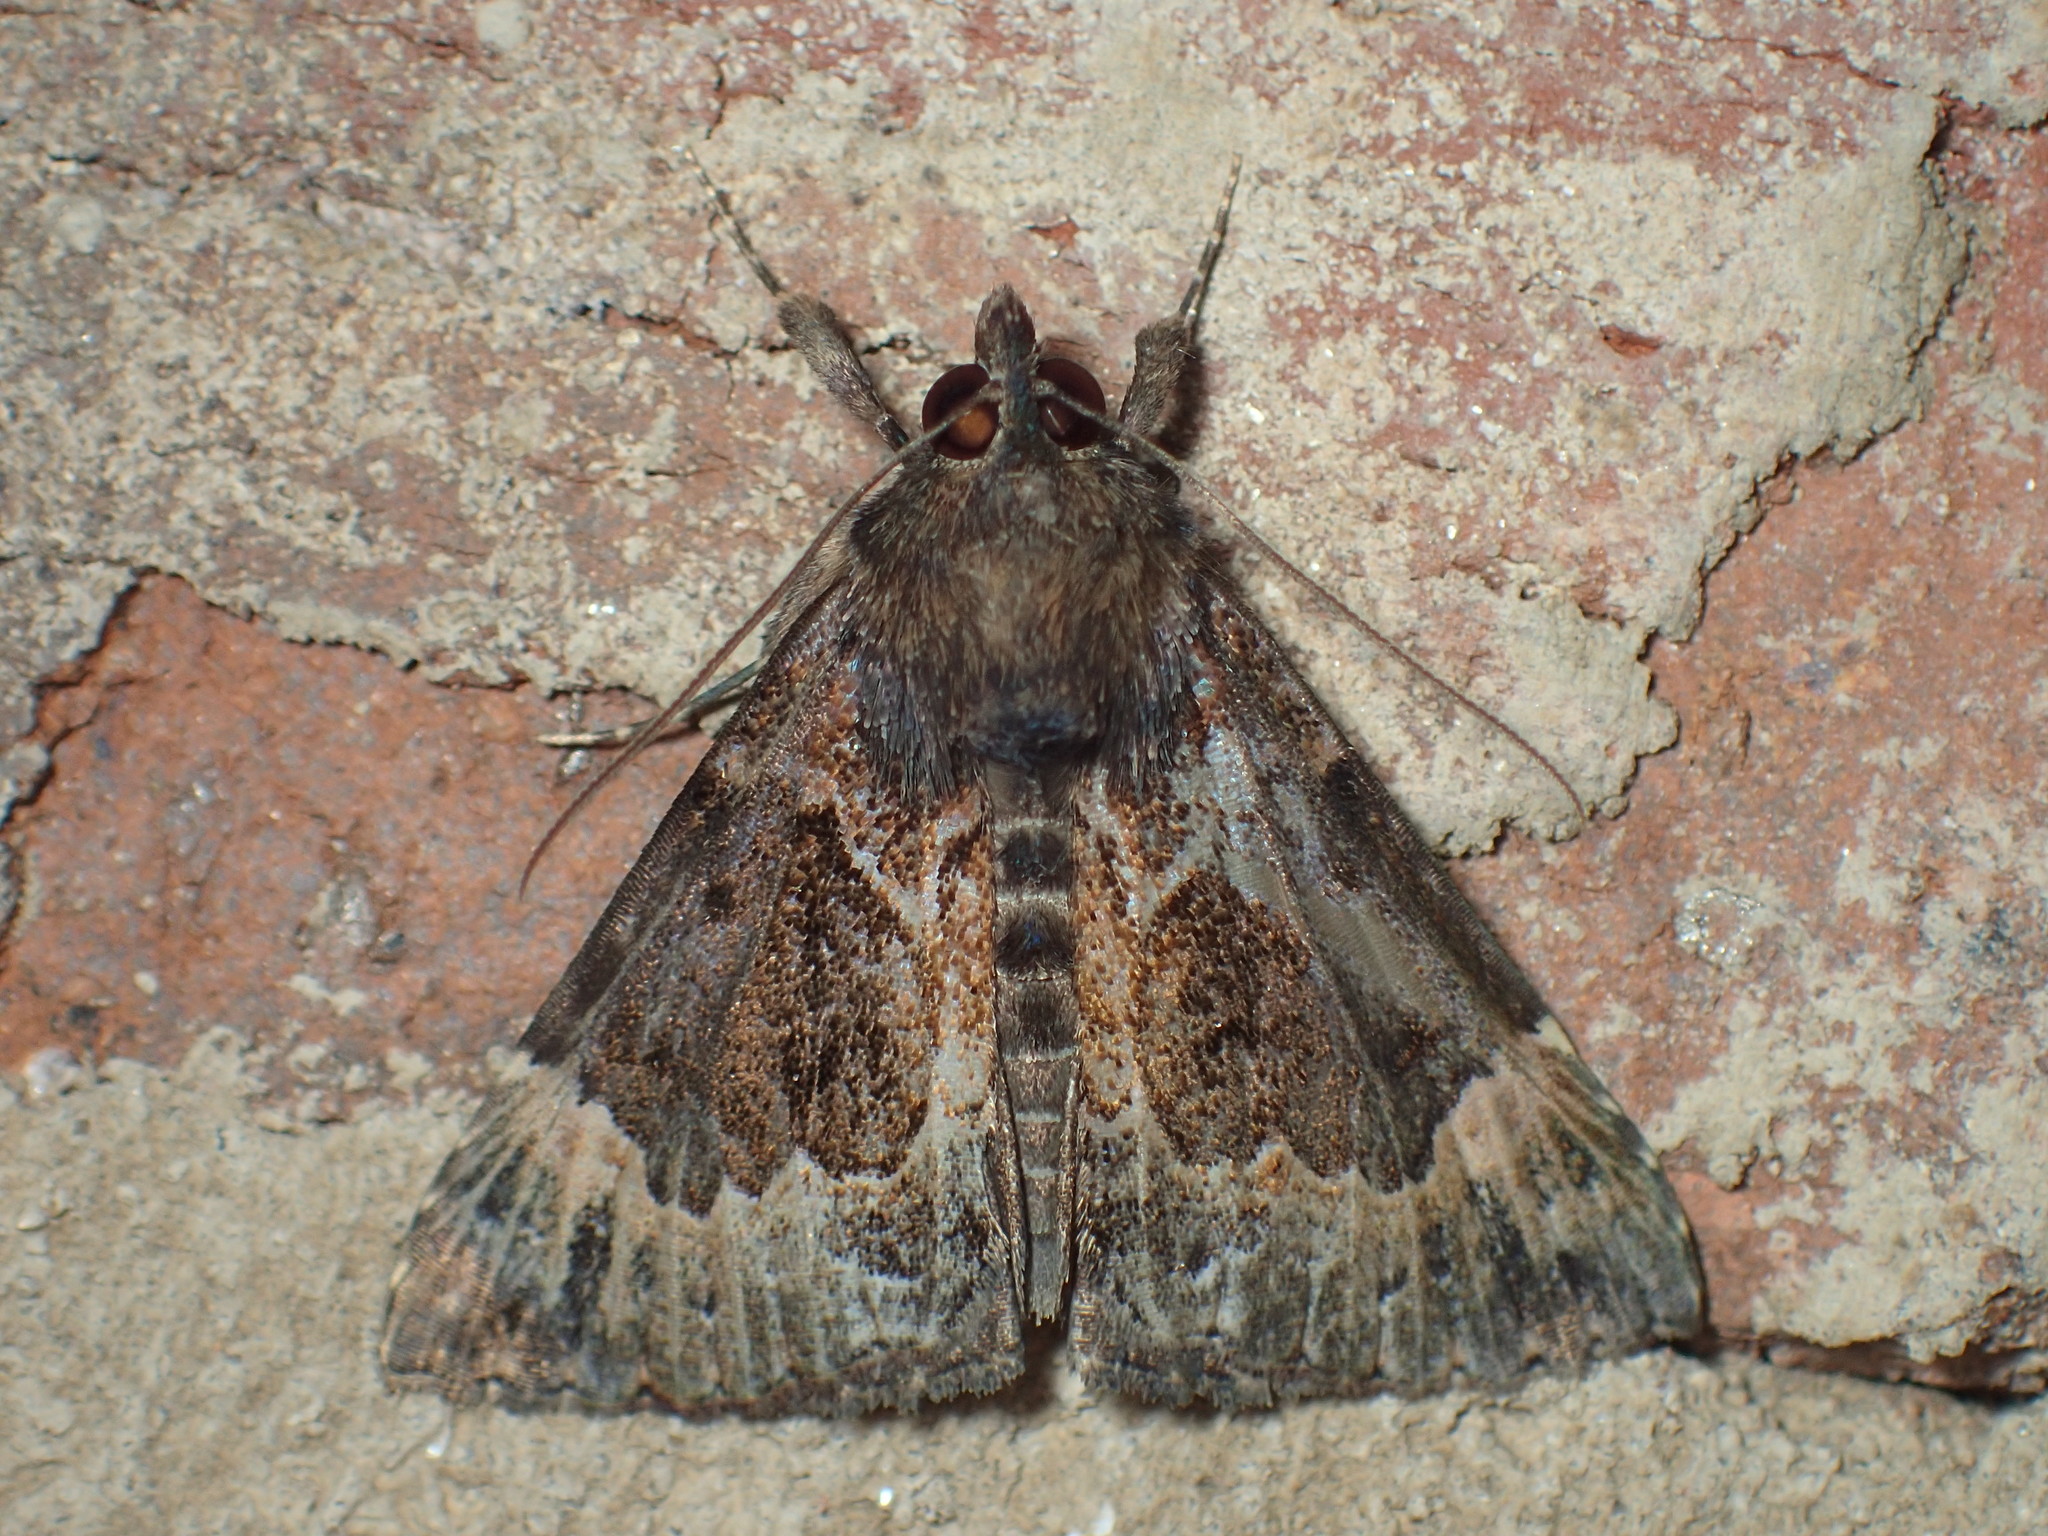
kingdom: Animalia
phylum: Arthropoda
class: Insecta
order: Lepidoptera
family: Erebidae
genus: Hypena
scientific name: Hypena palparia
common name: Mottled bomolocha moth
